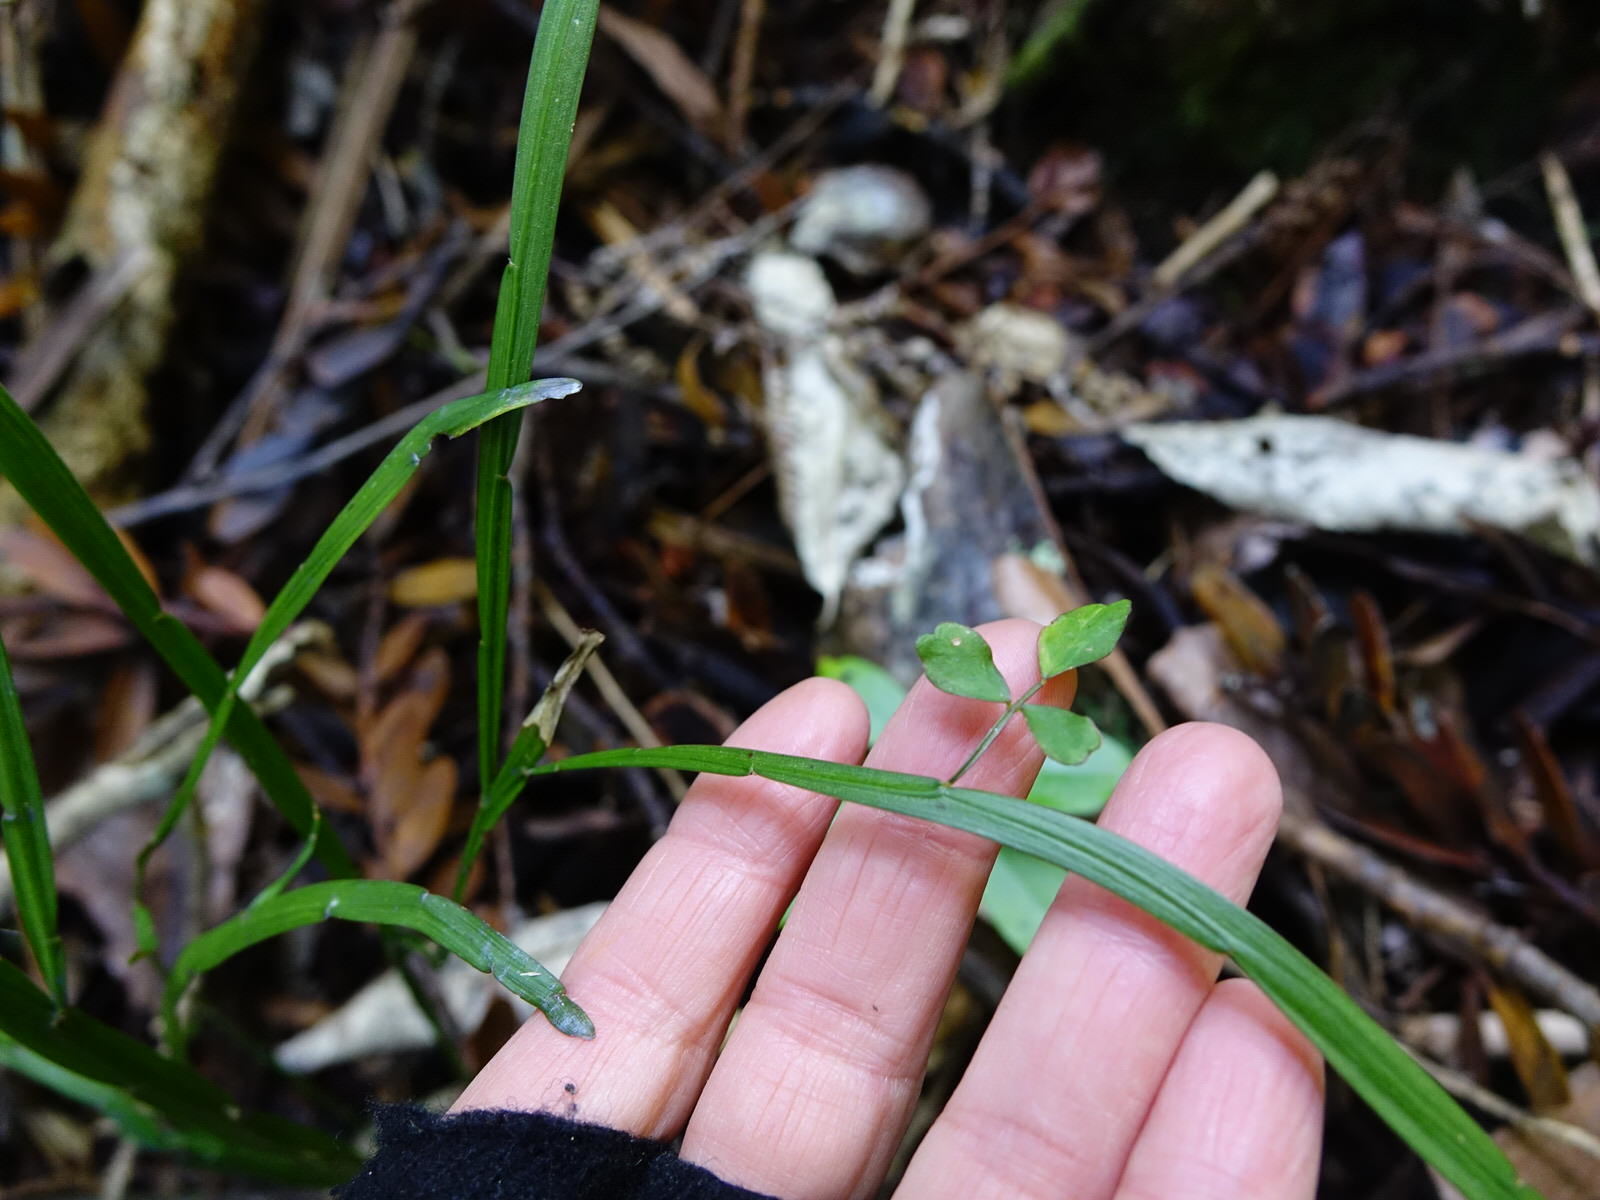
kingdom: Plantae
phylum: Tracheophyta
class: Magnoliopsida
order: Fabales
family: Fabaceae
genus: Carmichaelia
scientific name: Carmichaelia australis
